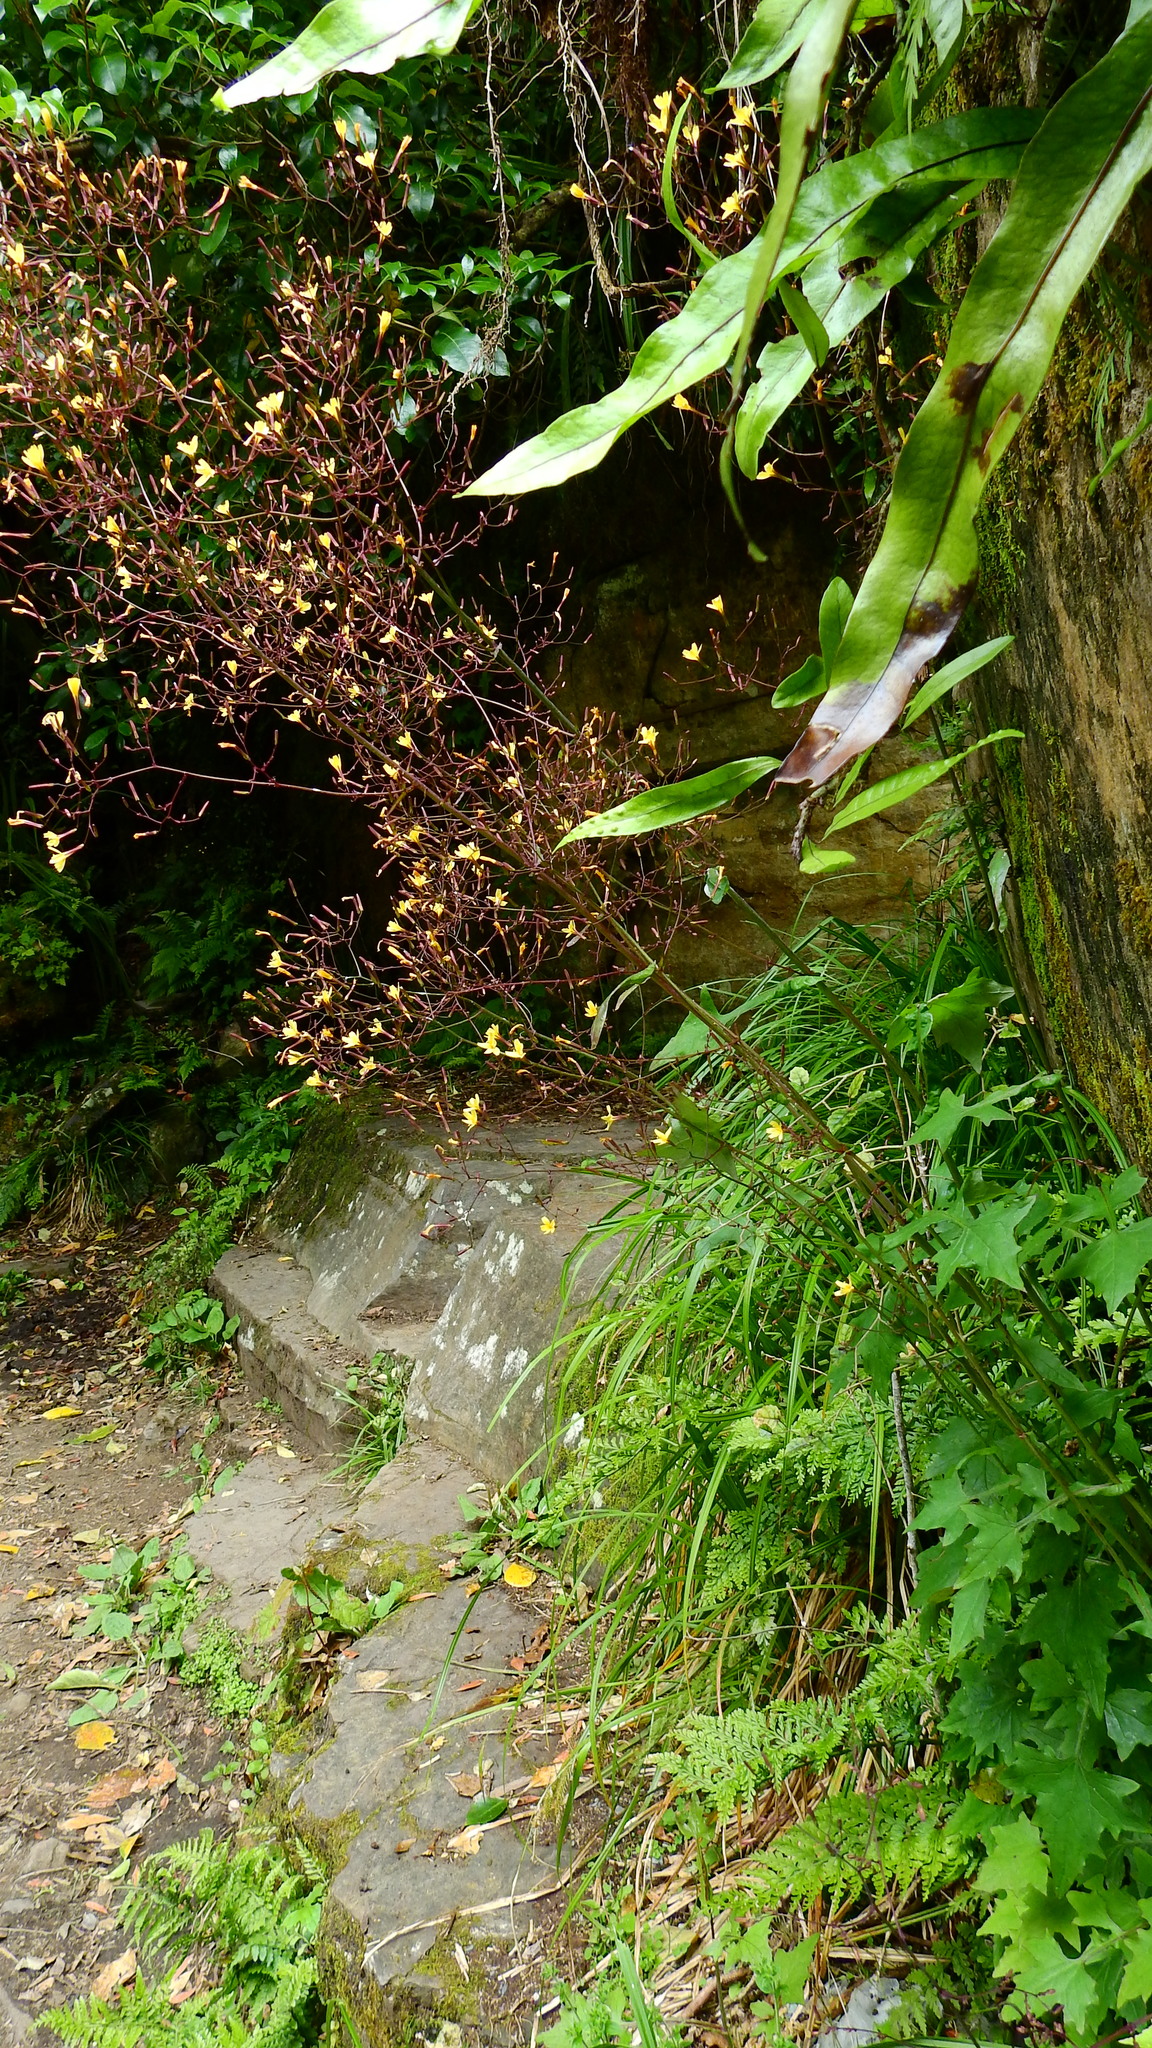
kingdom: Plantae
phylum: Tracheophyta
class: Magnoliopsida
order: Asterales
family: Asteraceae
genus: Mycelis
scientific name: Mycelis muralis
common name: Wall lettuce
